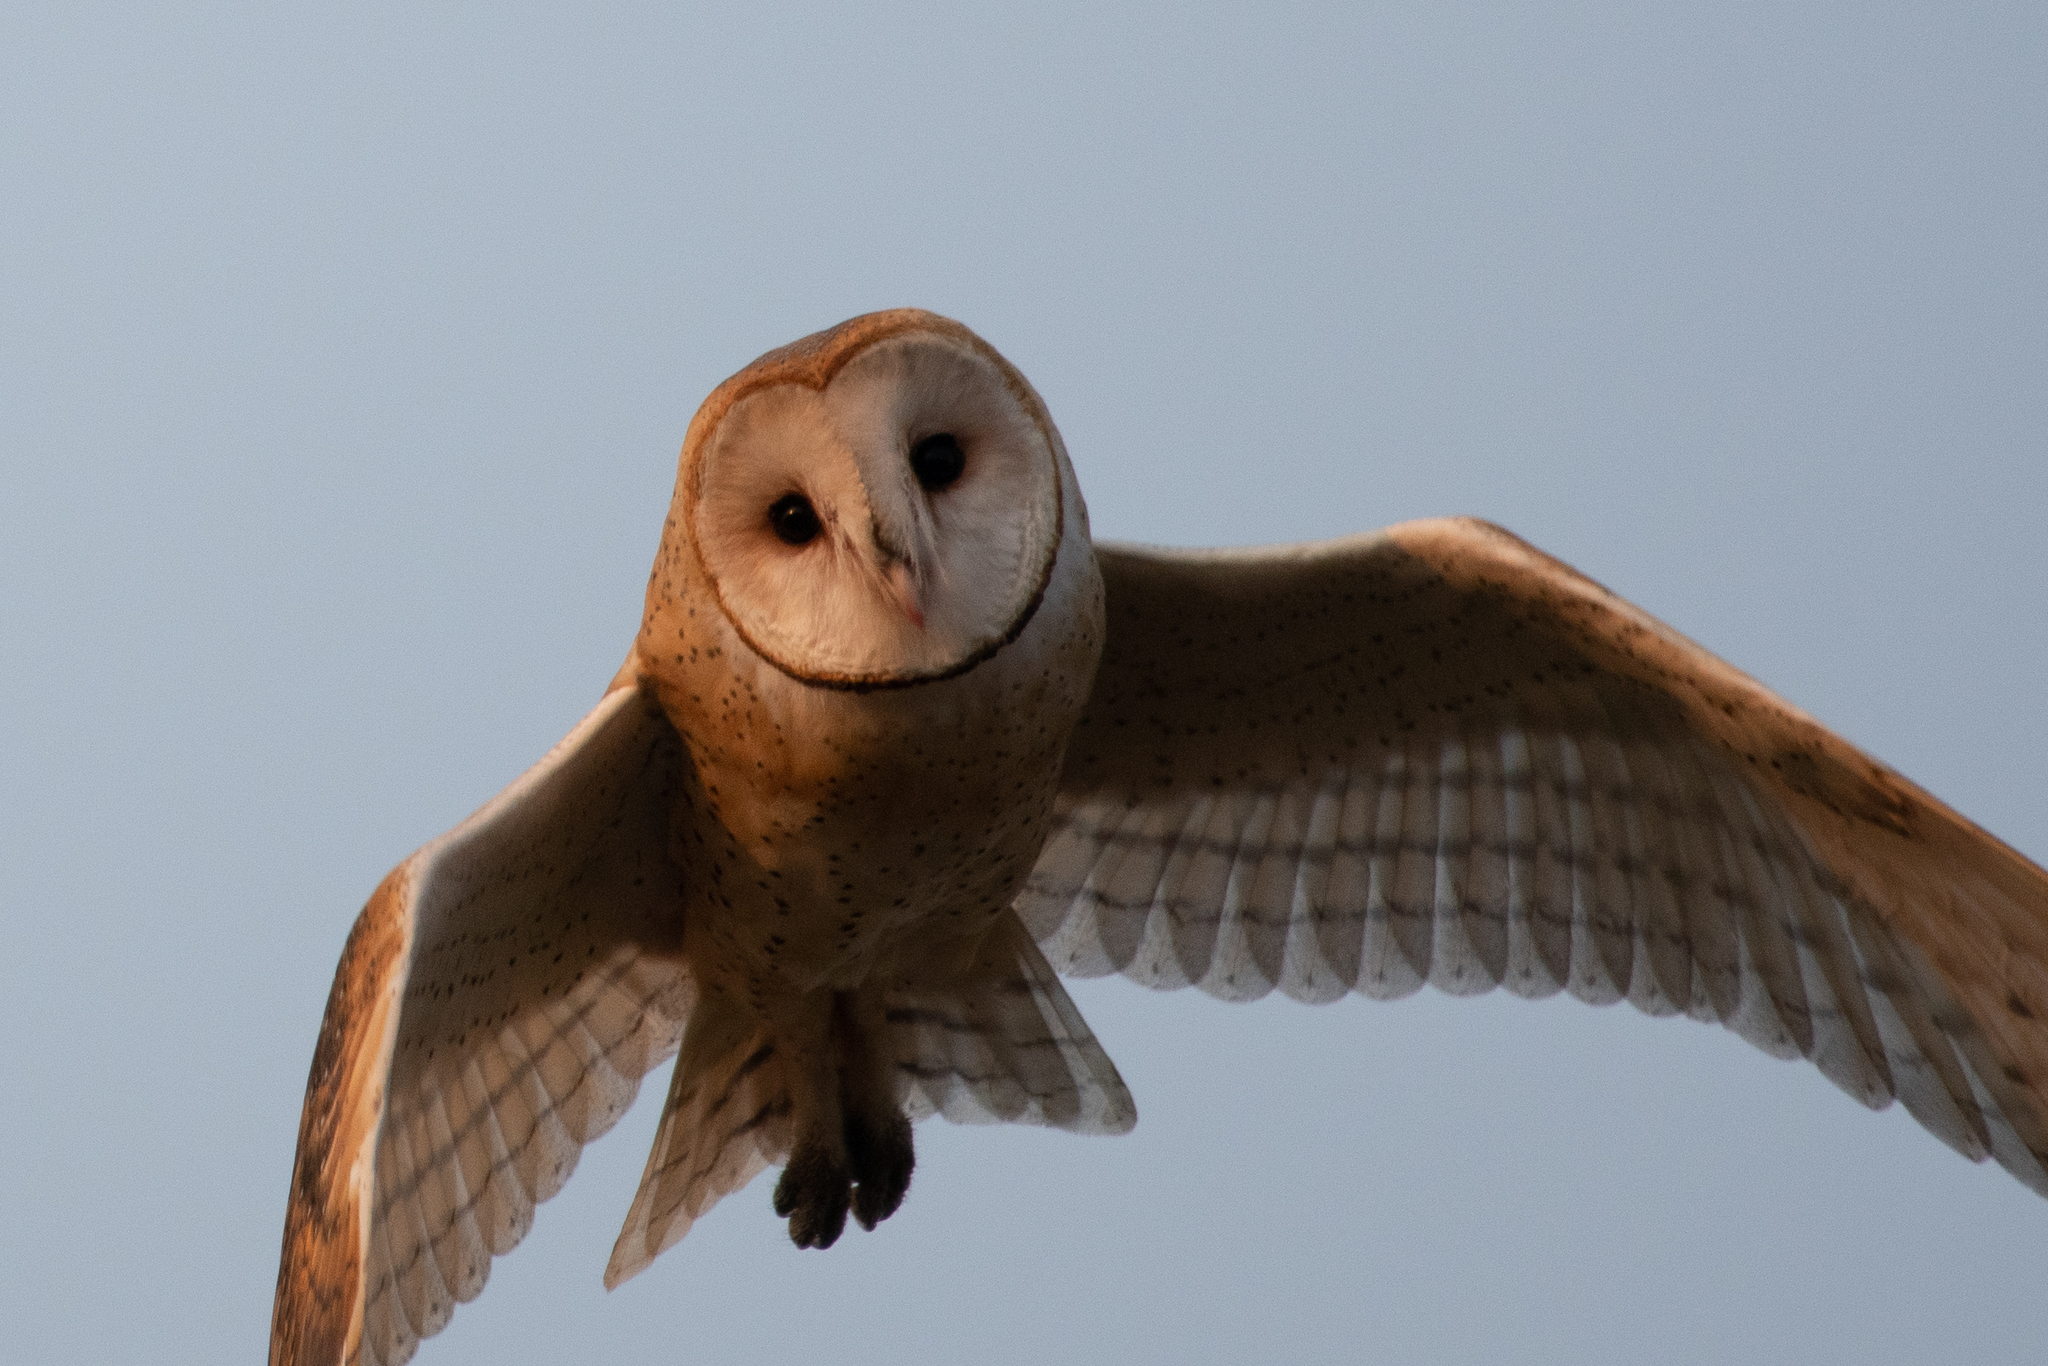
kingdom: Animalia
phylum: Chordata
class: Aves
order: Strigiformes
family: Tytonidae
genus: Tyto
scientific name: Tyto alba
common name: Barn owl
